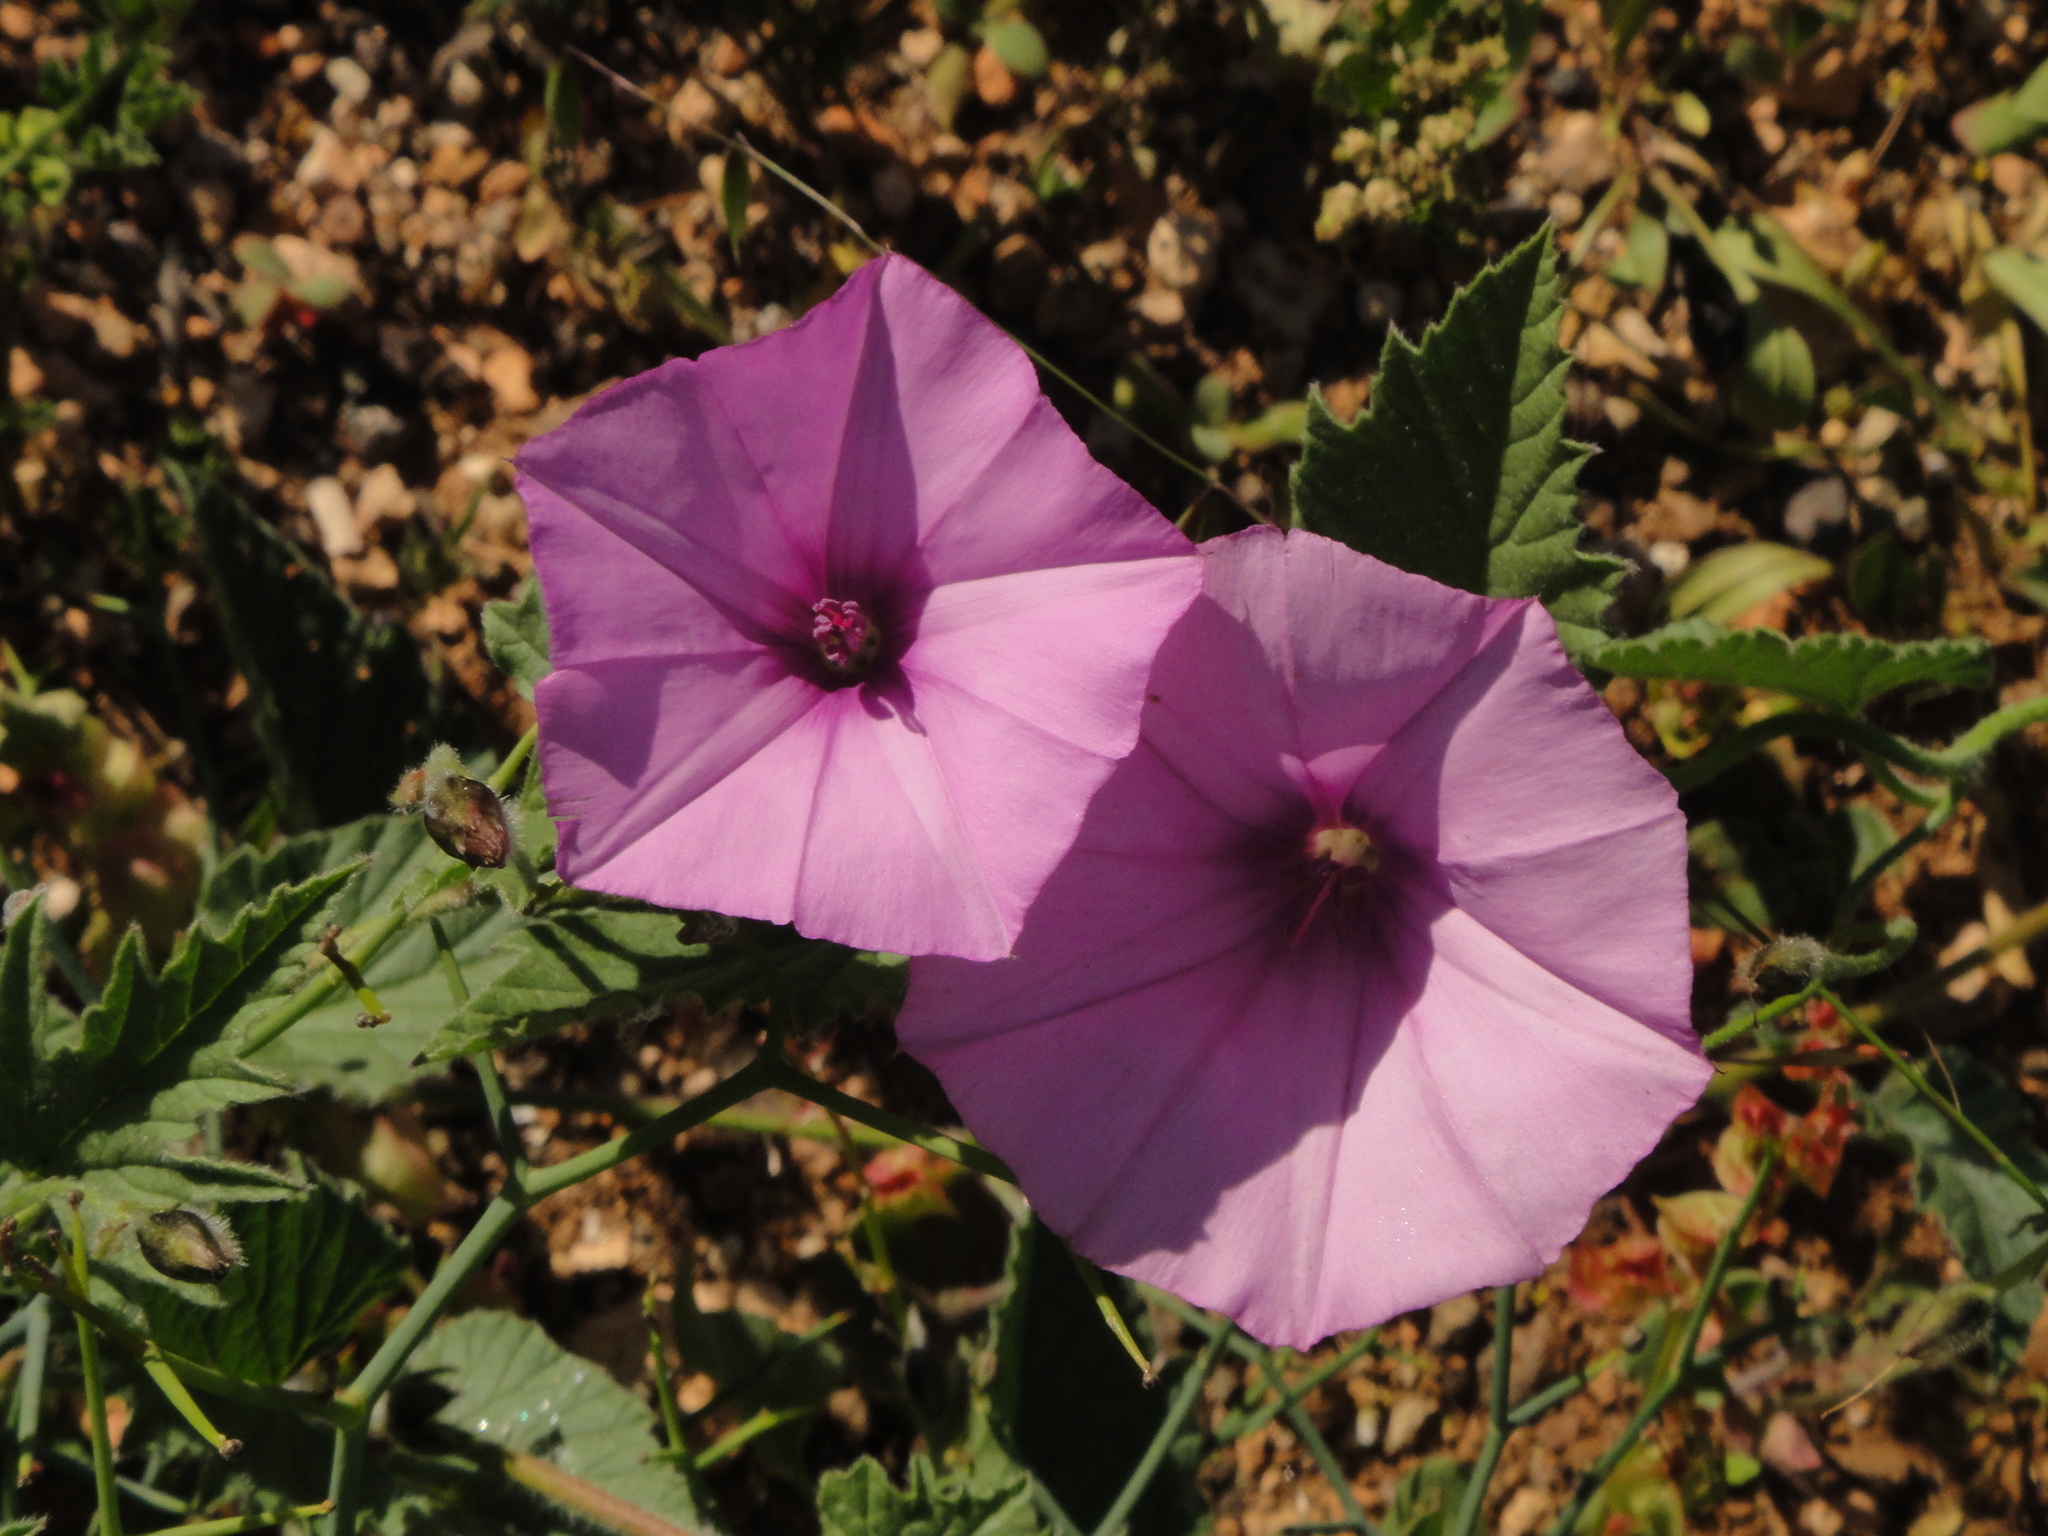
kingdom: Plantae
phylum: Tracheophyta
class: Magnoliopsida
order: Solanales
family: Convolvulaceae
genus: Convolvulus
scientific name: Convolvulus althaeoides
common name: Mallow bindweed
